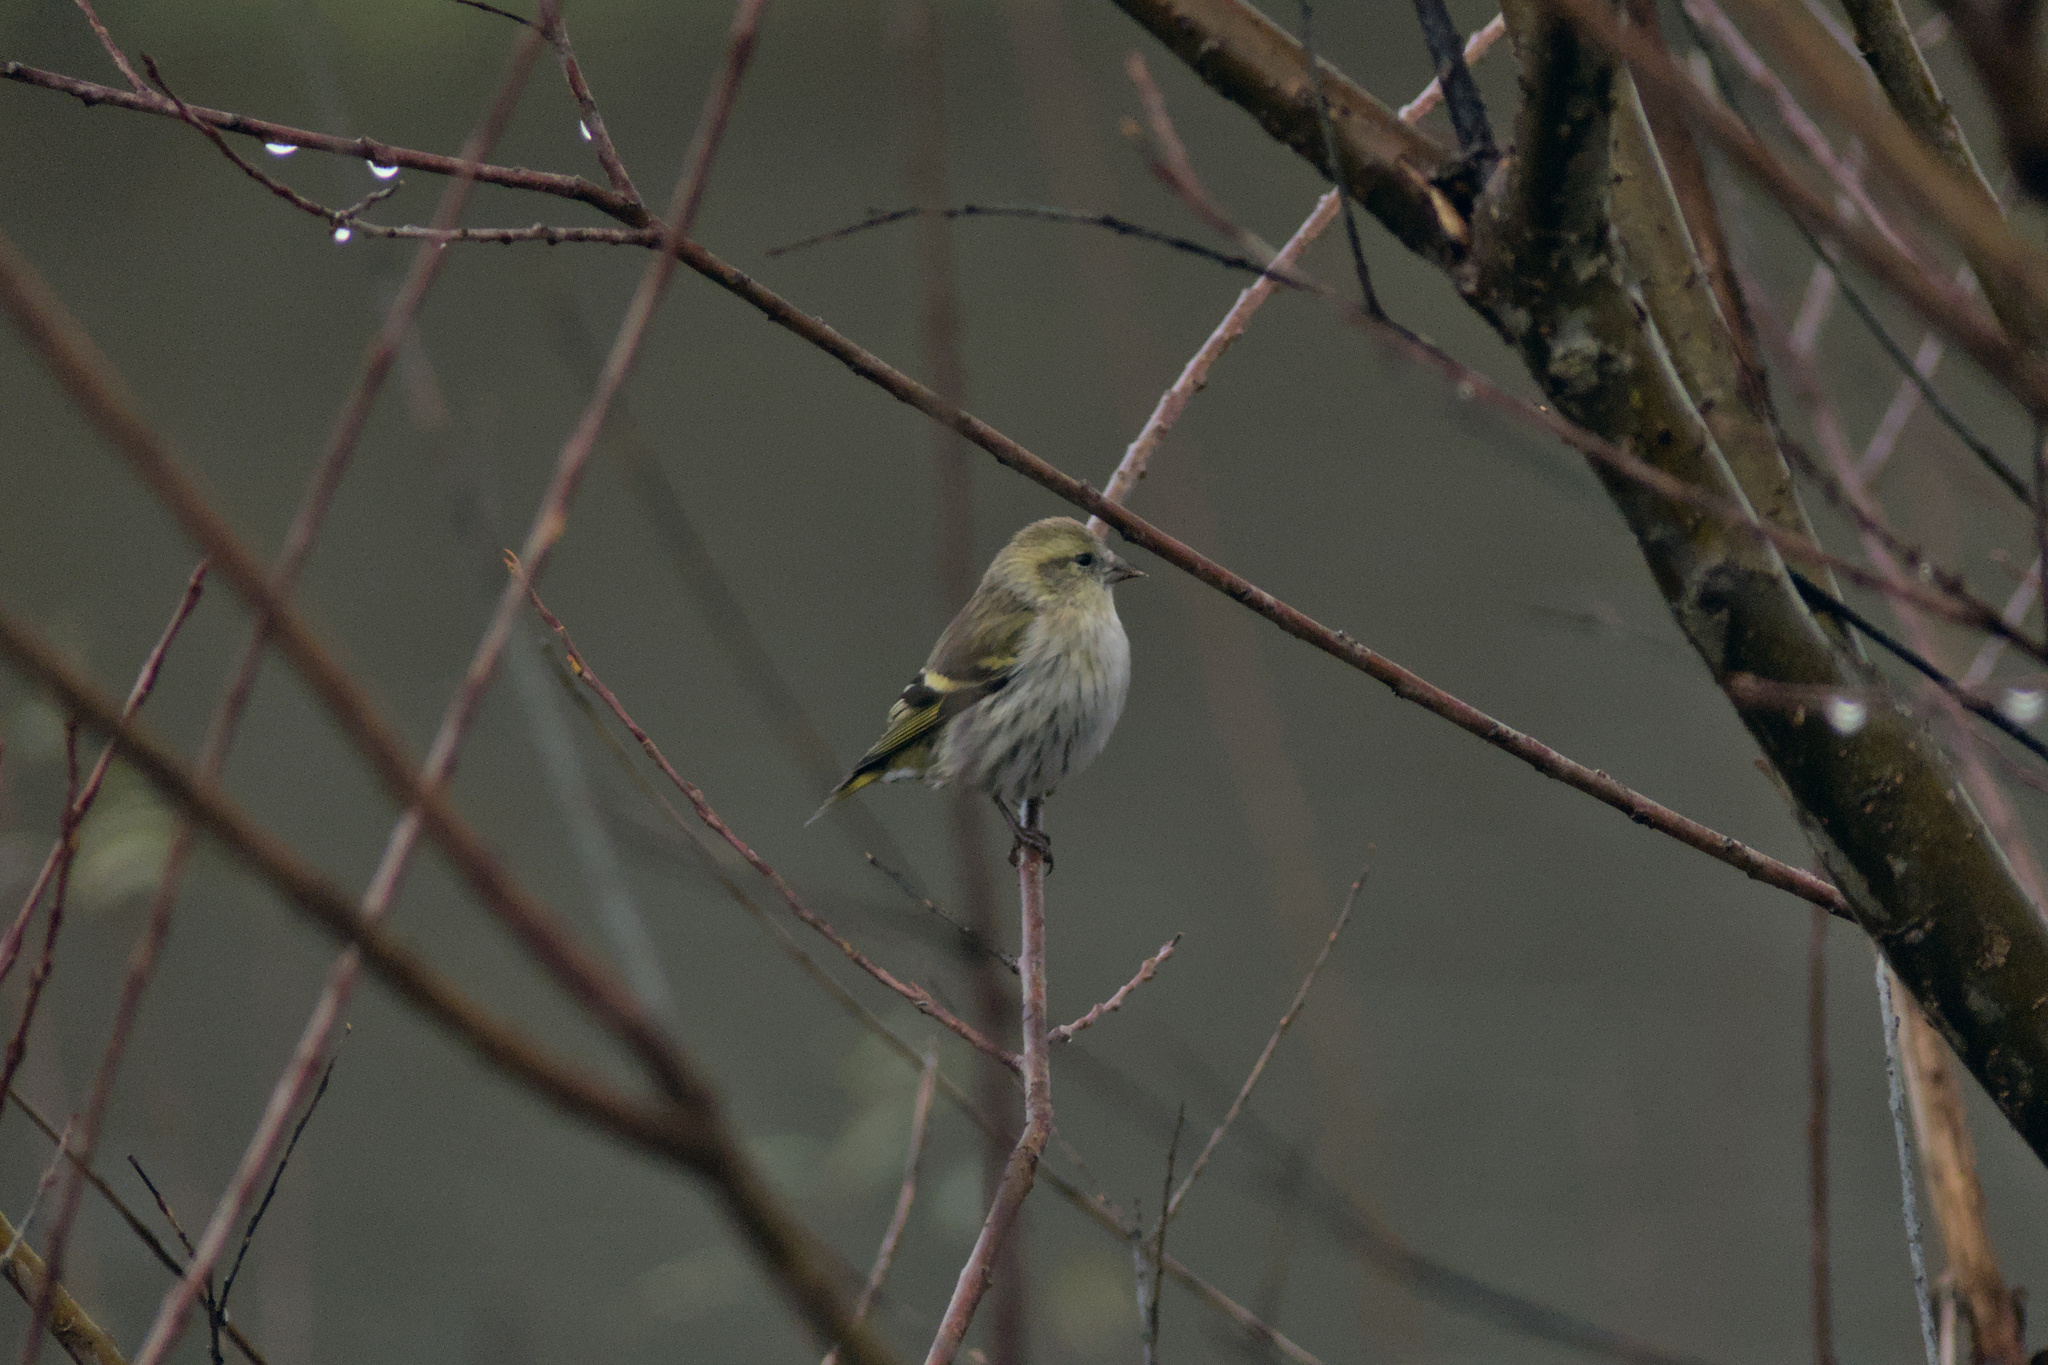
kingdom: Animalia
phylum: Chordata
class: Aves
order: Passeriformes
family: Fringillidae
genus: Spinus
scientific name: Spinus spinus
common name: Eurasian siskin
